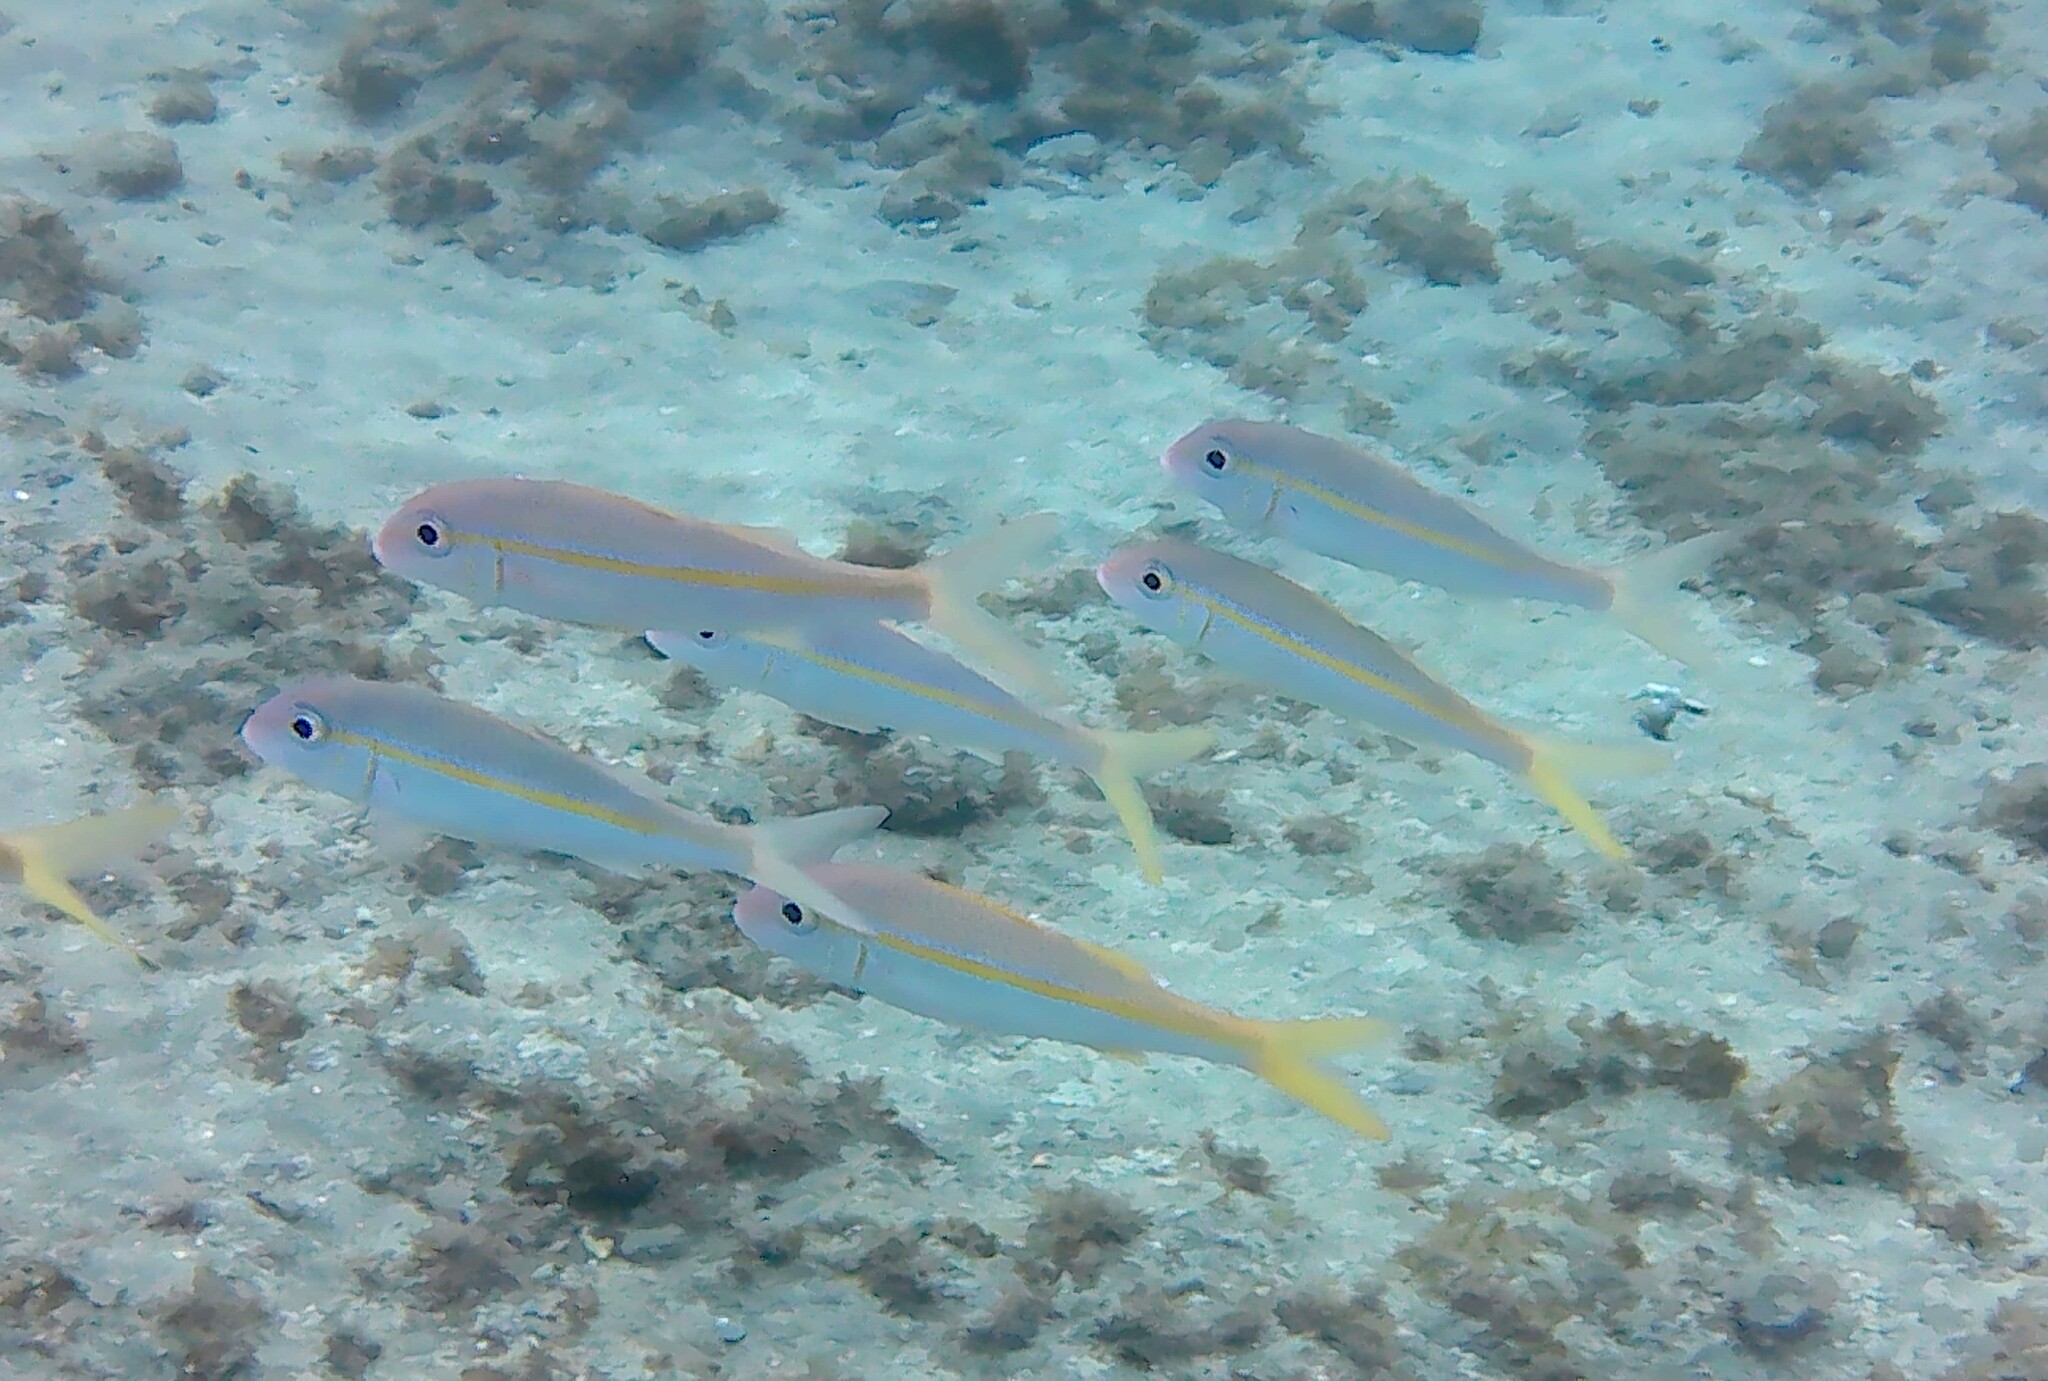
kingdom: Animalia
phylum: Chordata
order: Perciformes
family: Mullidae
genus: Mulloidichthys
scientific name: Mulloidichthys vanicolensis
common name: Yellowfin goatfish
